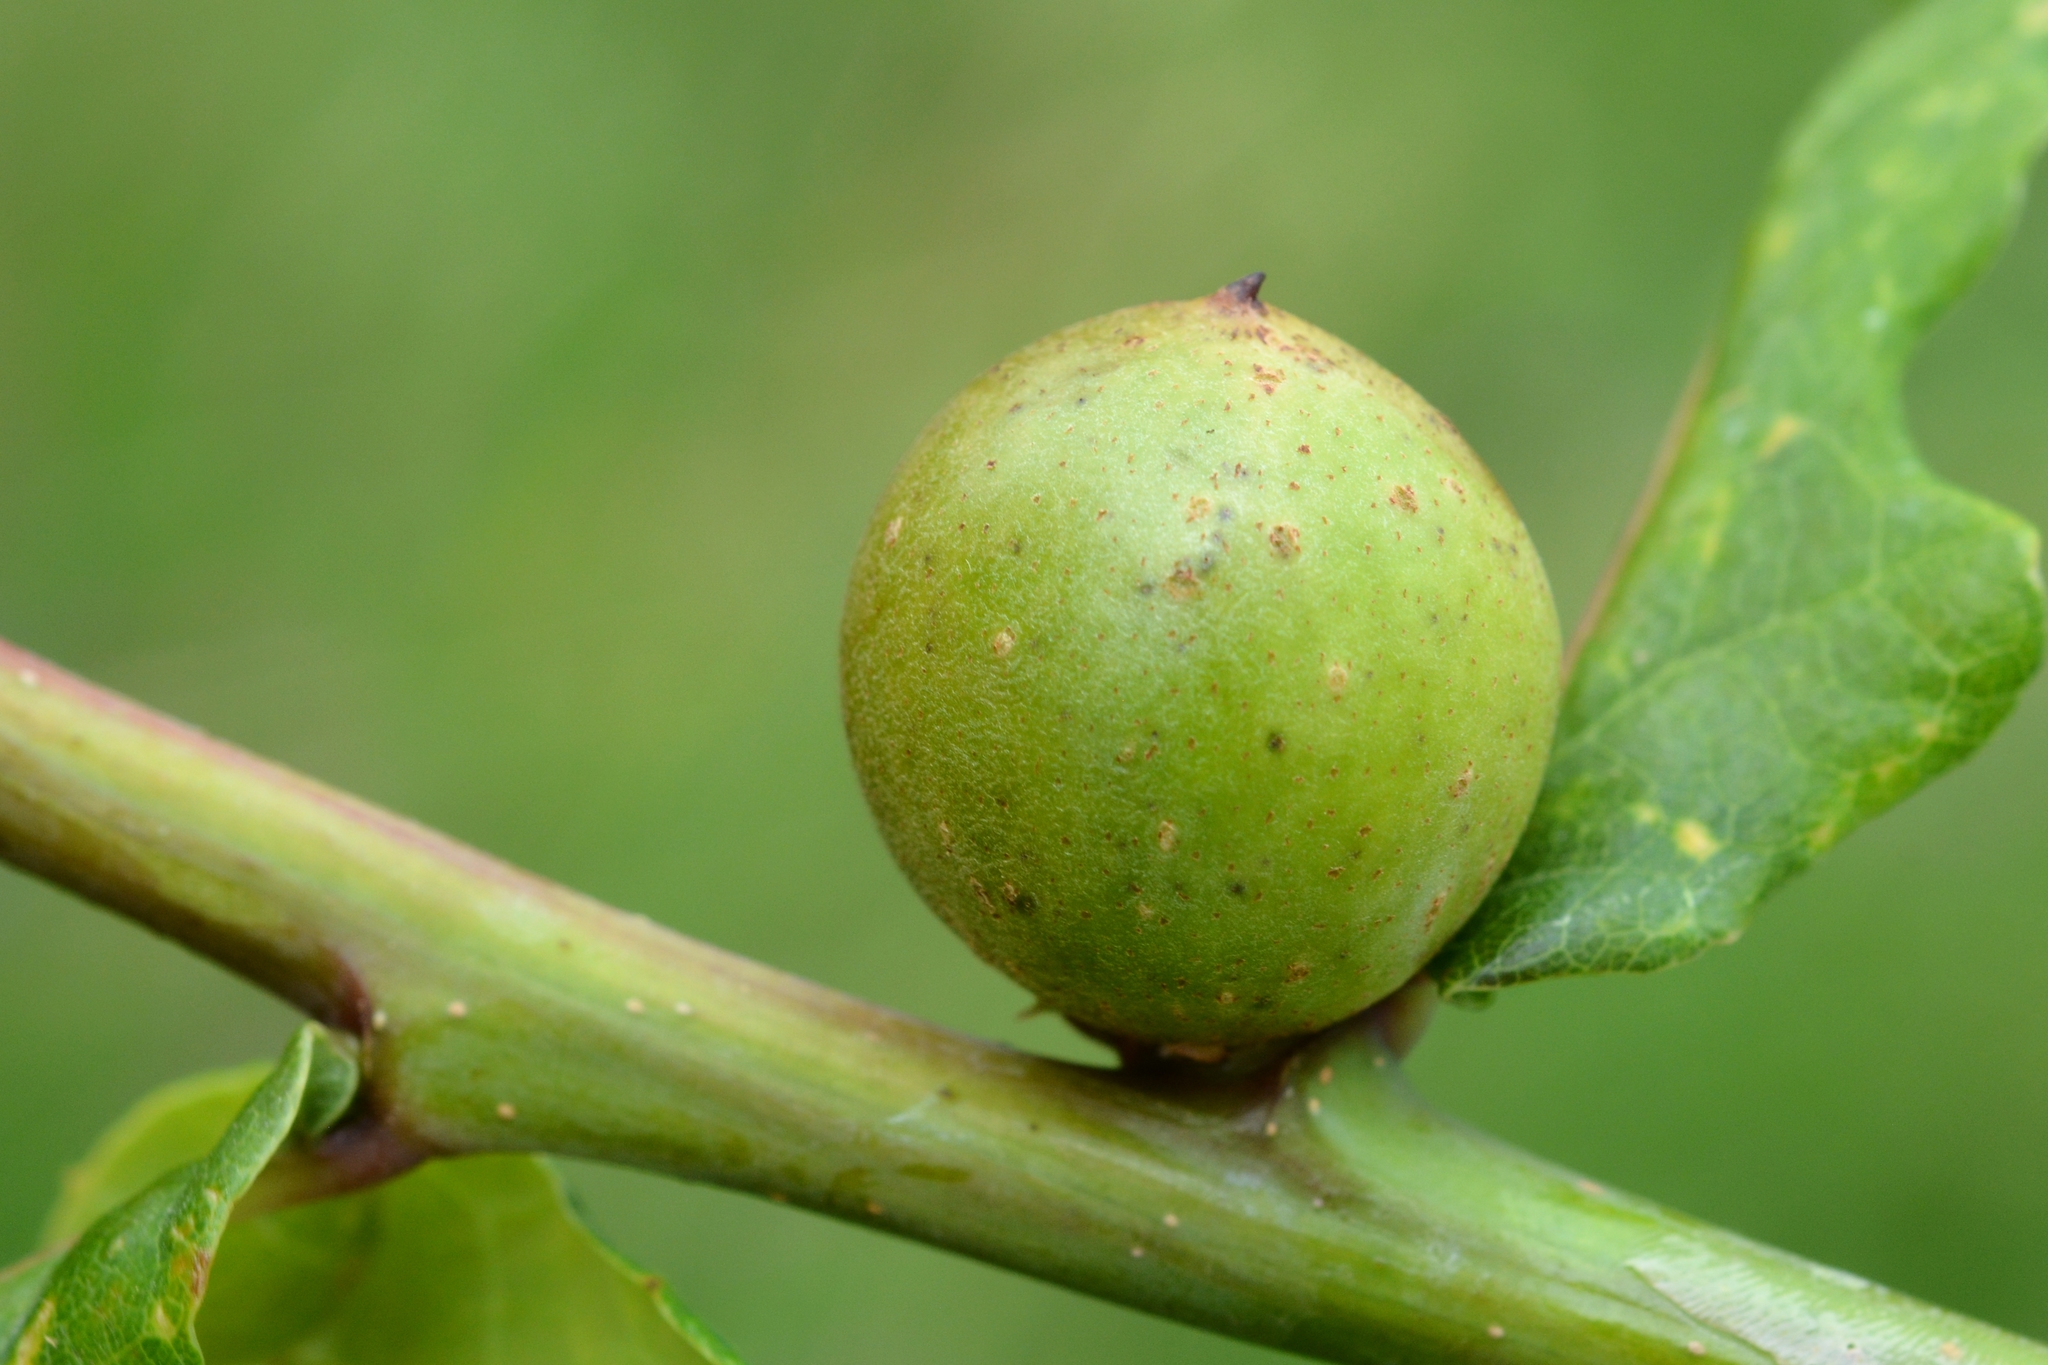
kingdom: Animalia
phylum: Arthropoda
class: Insecta
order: Hymenoptera
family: Cynipidae
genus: Andricus
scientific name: Andricus kollari
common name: Marble gall
